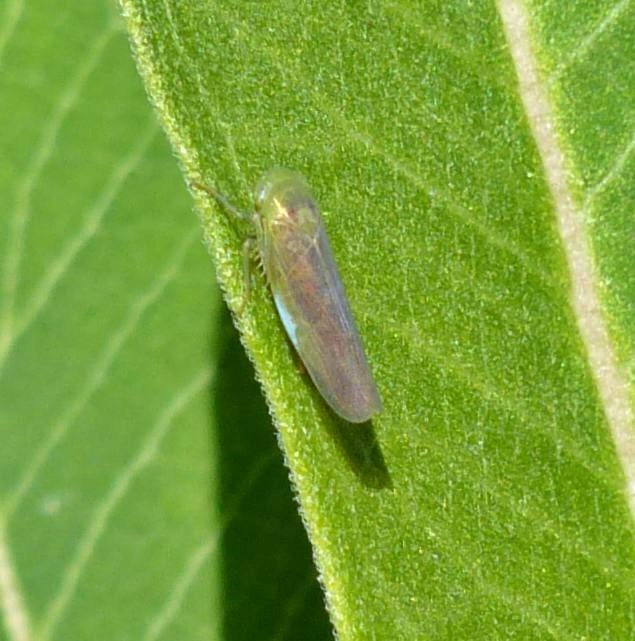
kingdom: Animalia
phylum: Arthropoda
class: Insecta
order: Hemiptera
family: Cicadellidae
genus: Chlorotettix
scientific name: Chlorotettix tergatus
